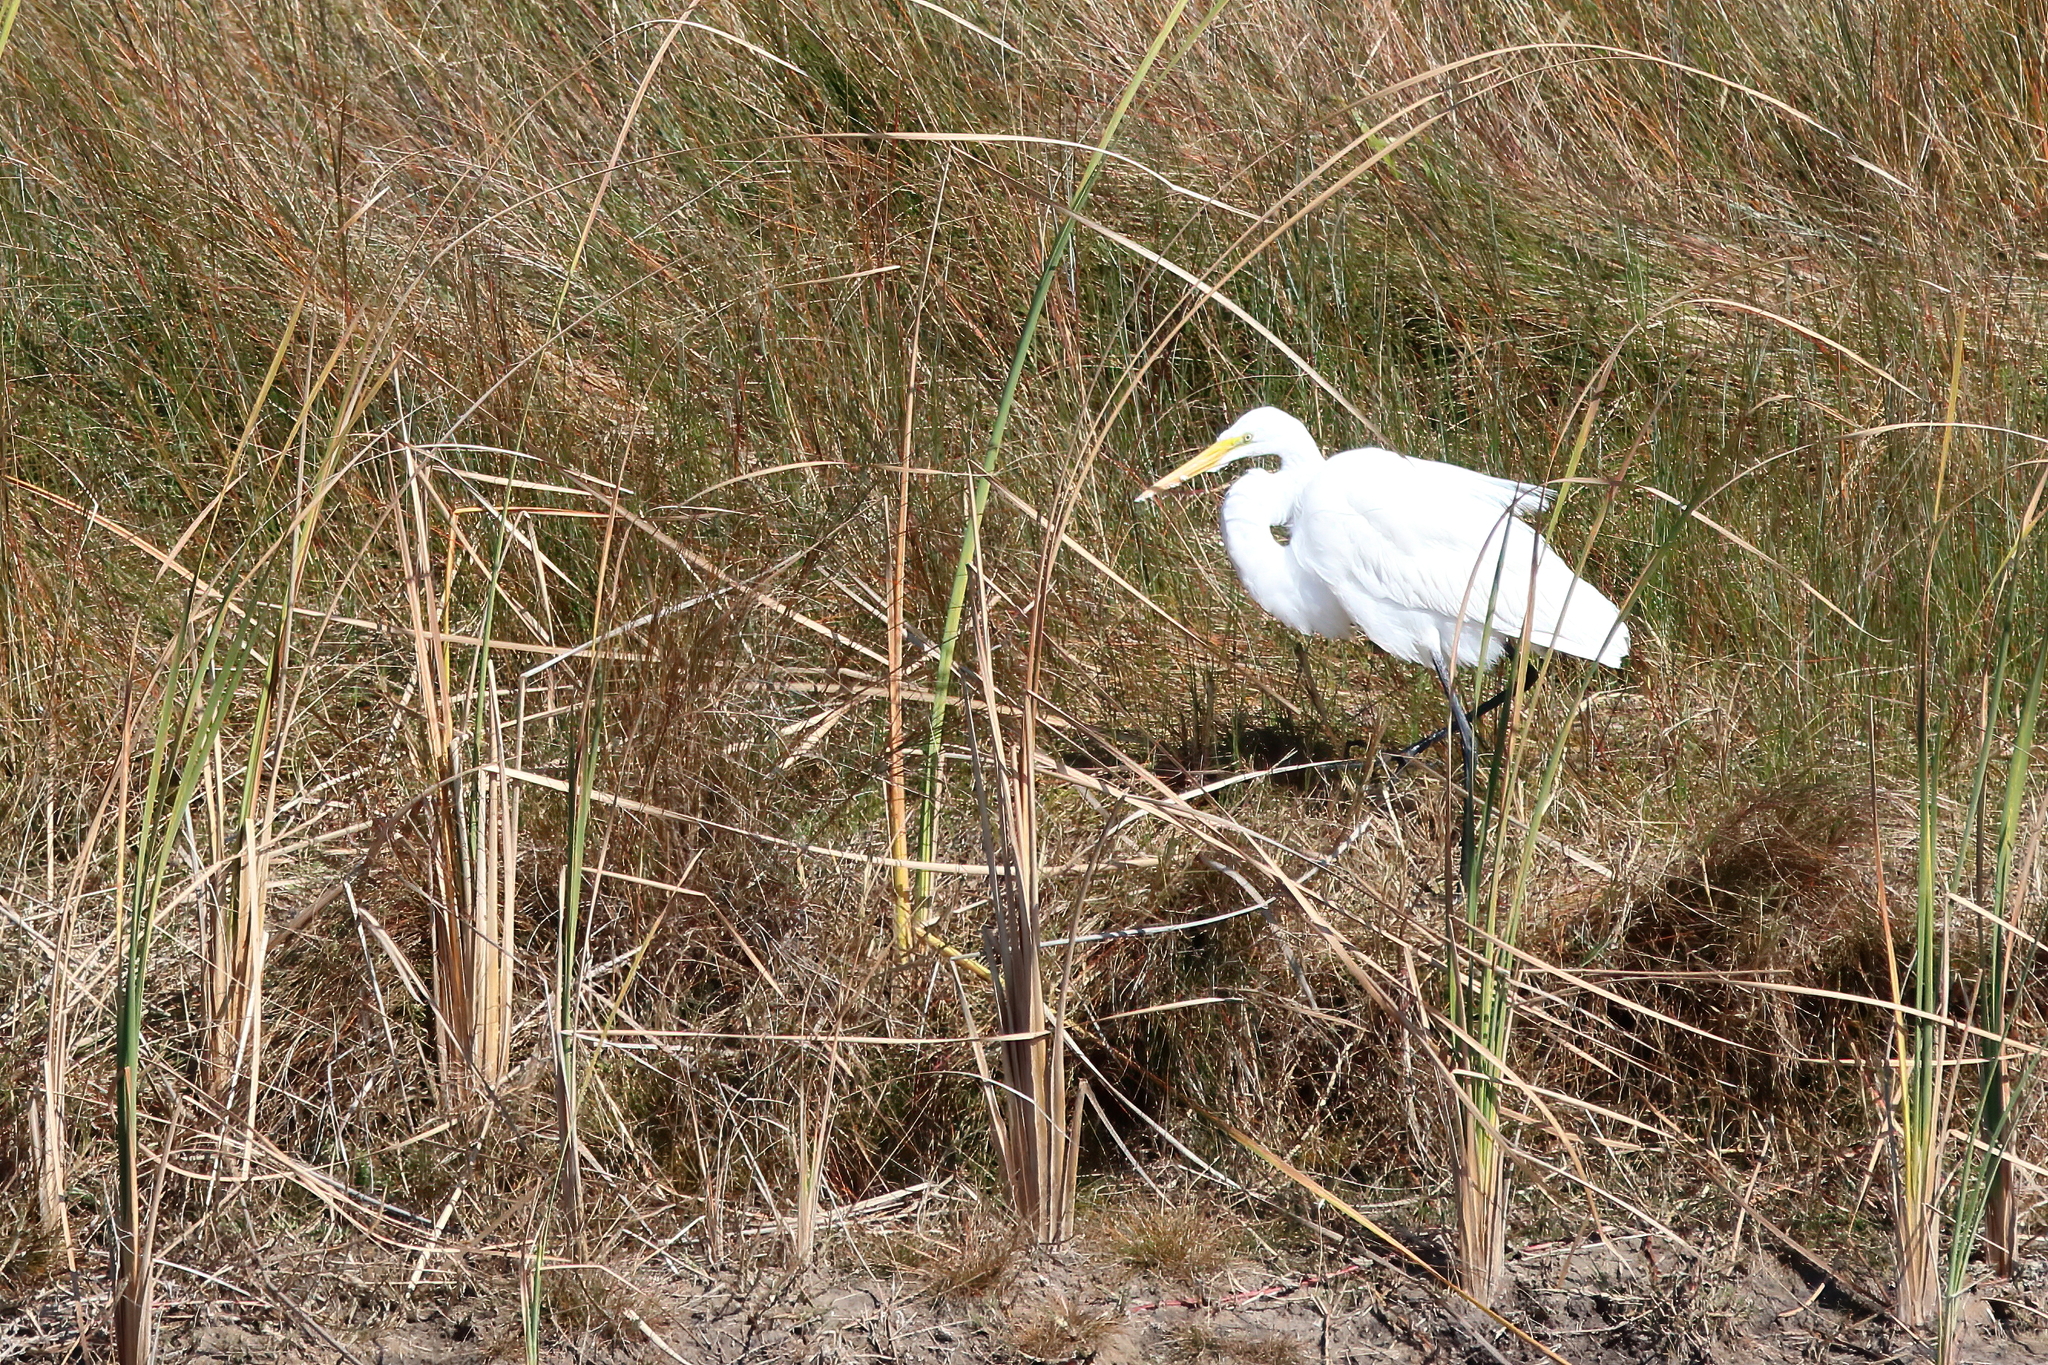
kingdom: Animalia
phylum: Chordata
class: Aves
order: Pelecaniformes
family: Ardeidae
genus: Ardea
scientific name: Ardea alba
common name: Great egret
